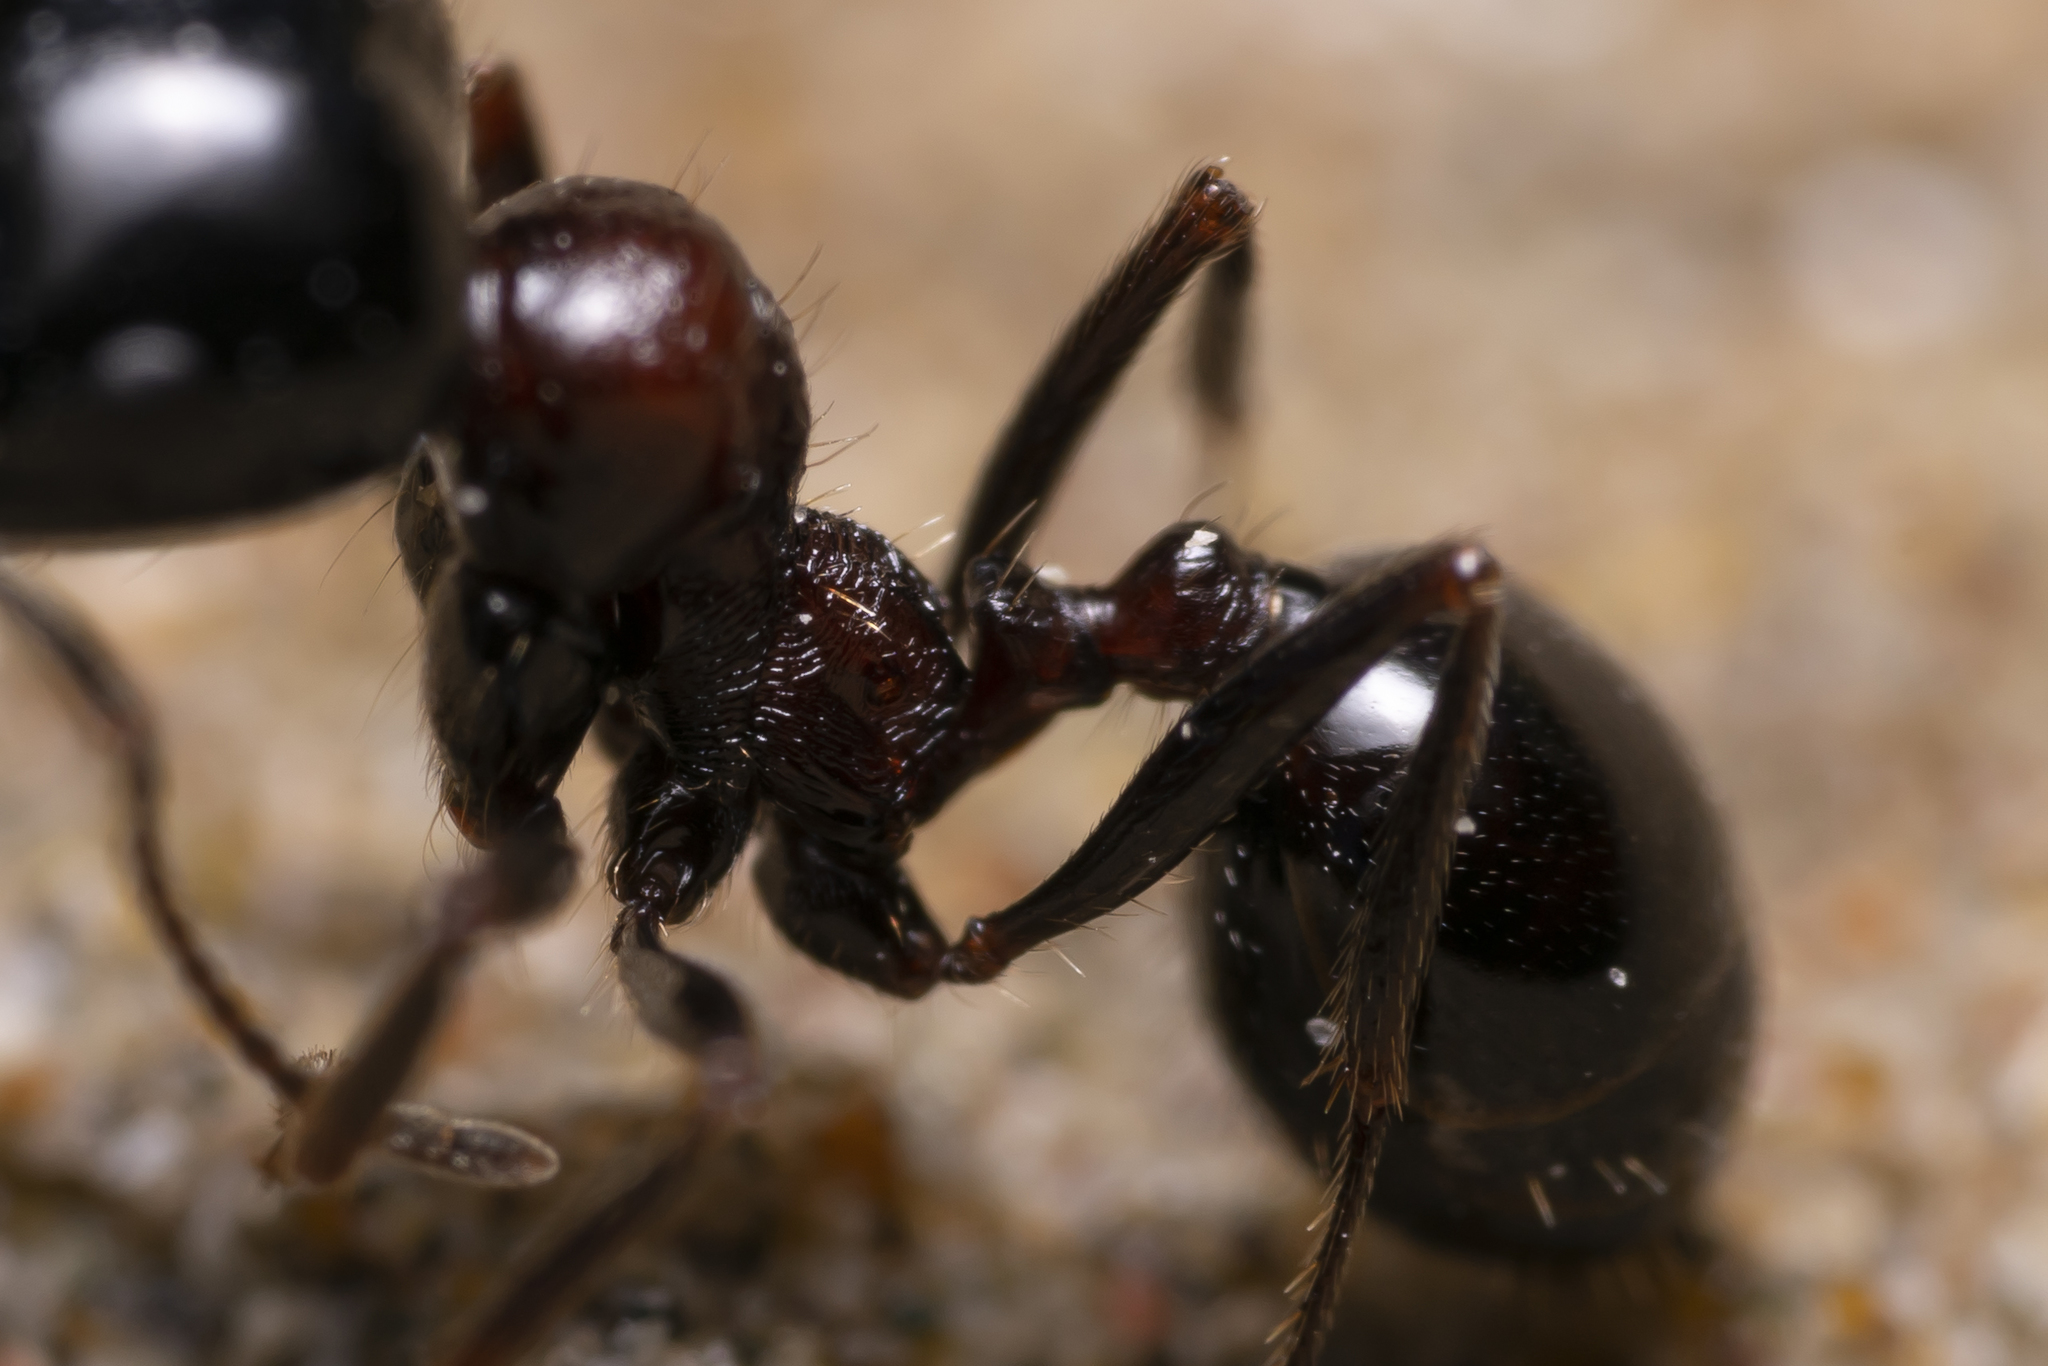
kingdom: Animalia
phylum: Arthropoda
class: Insecta
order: Hymenoptera
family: Formicidae
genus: Messor
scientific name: Messor wasmanni
